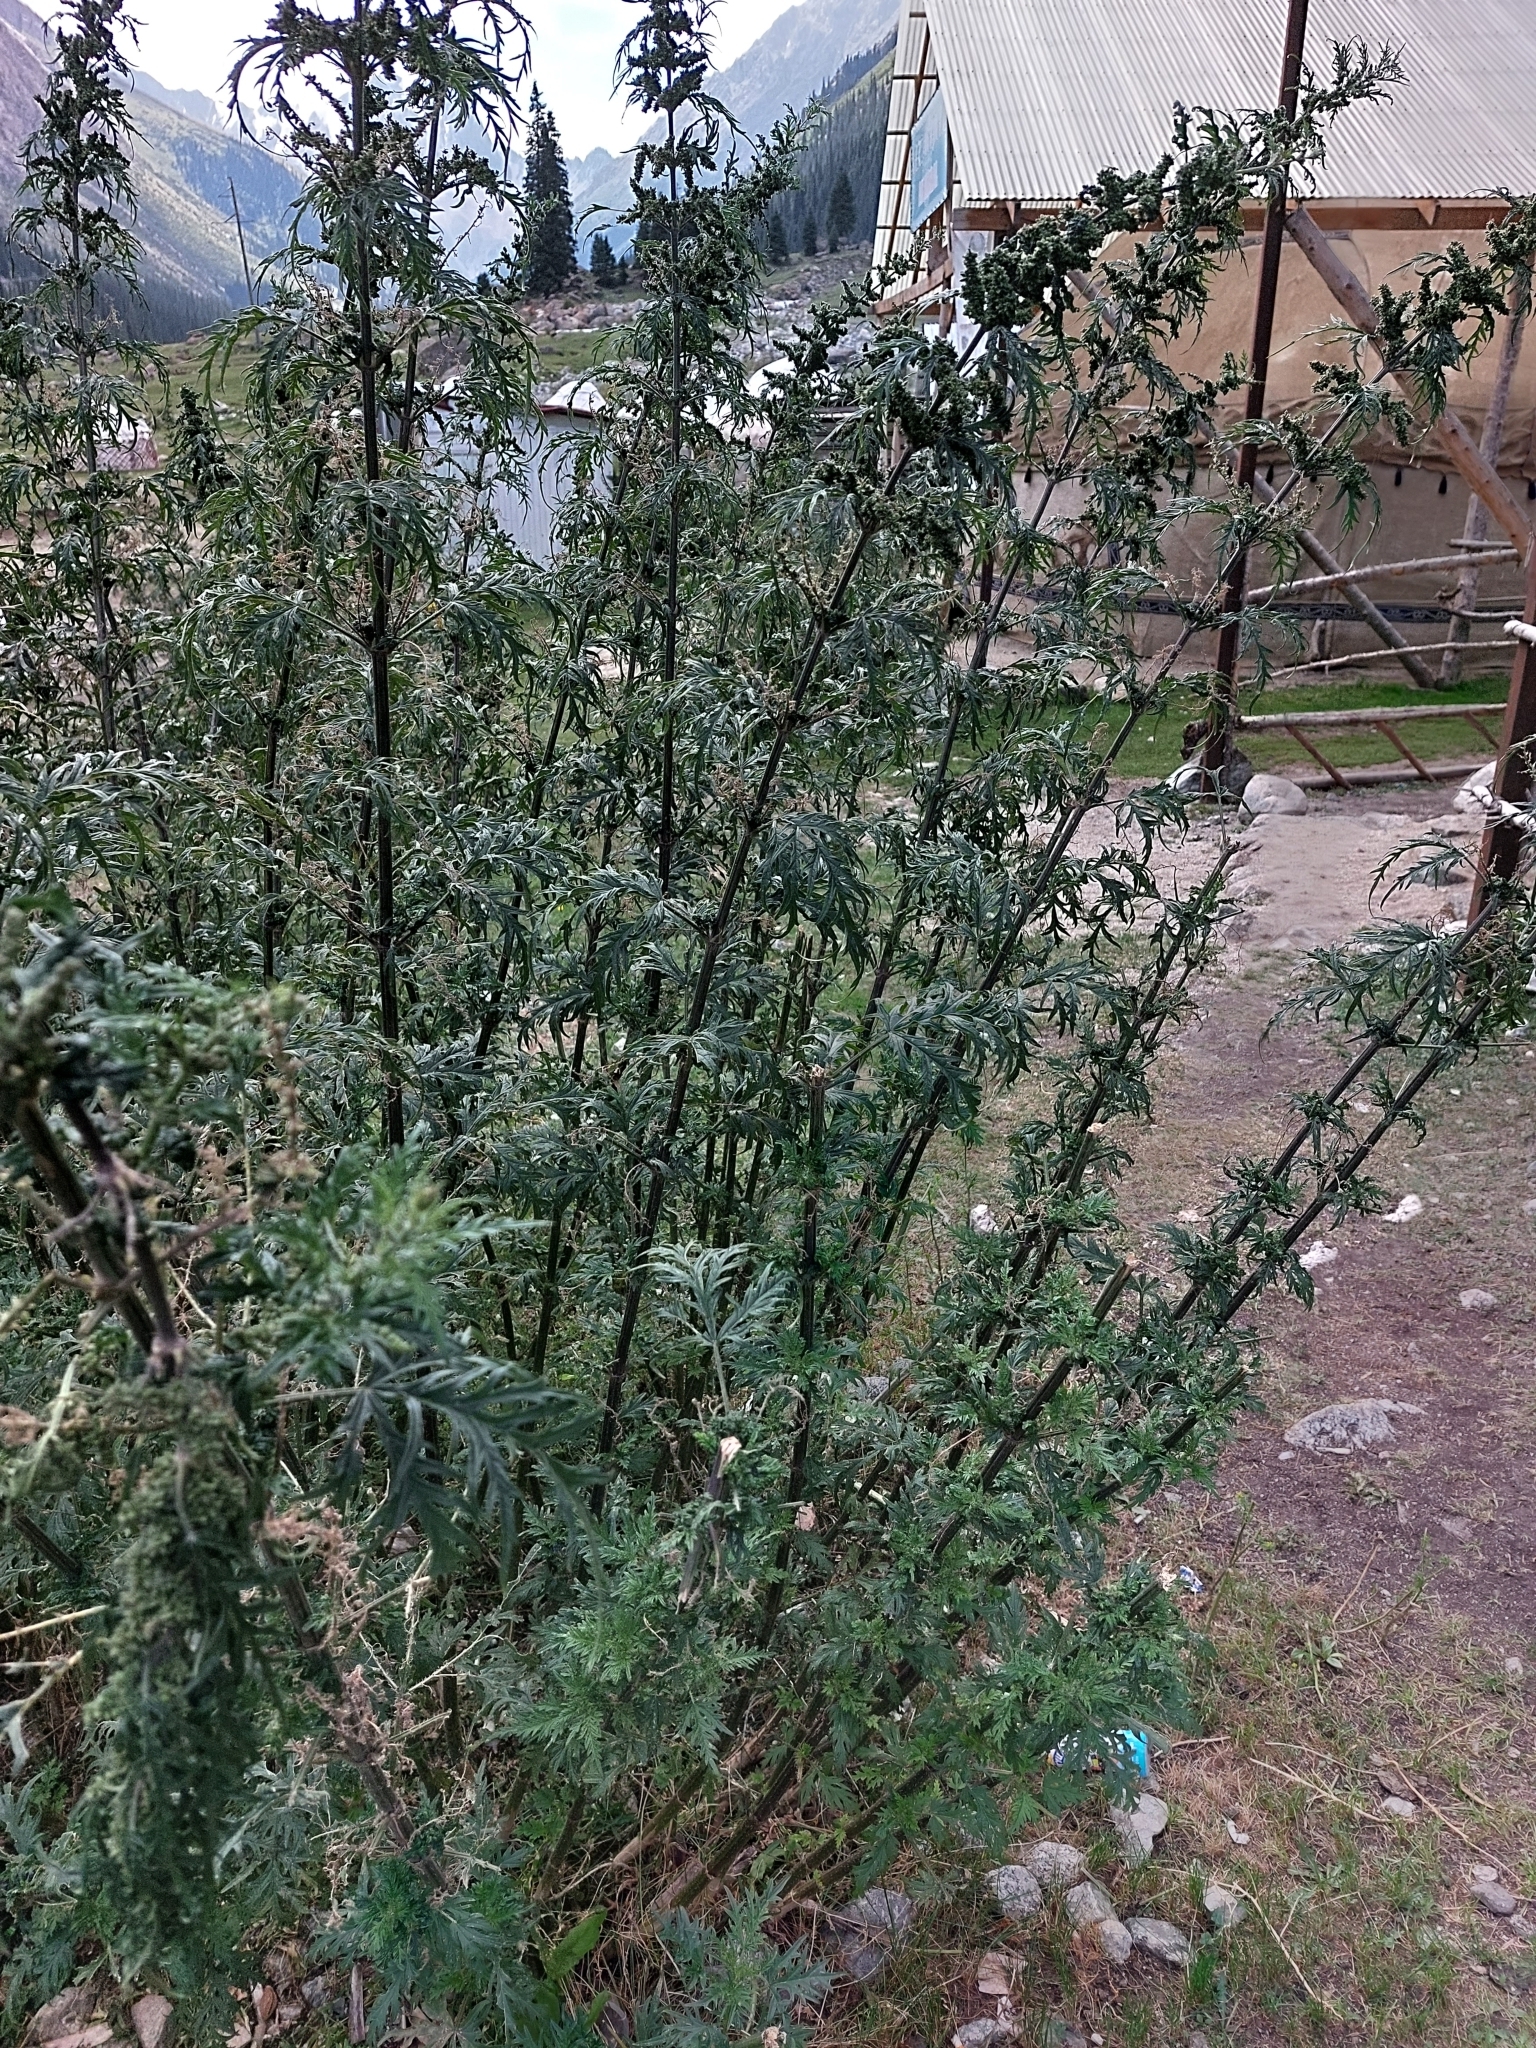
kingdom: Plantae
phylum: Tracheophyta
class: Magnoliopsida
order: Rosales
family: Urticaceae
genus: Urtica
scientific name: Urtica cannabina
